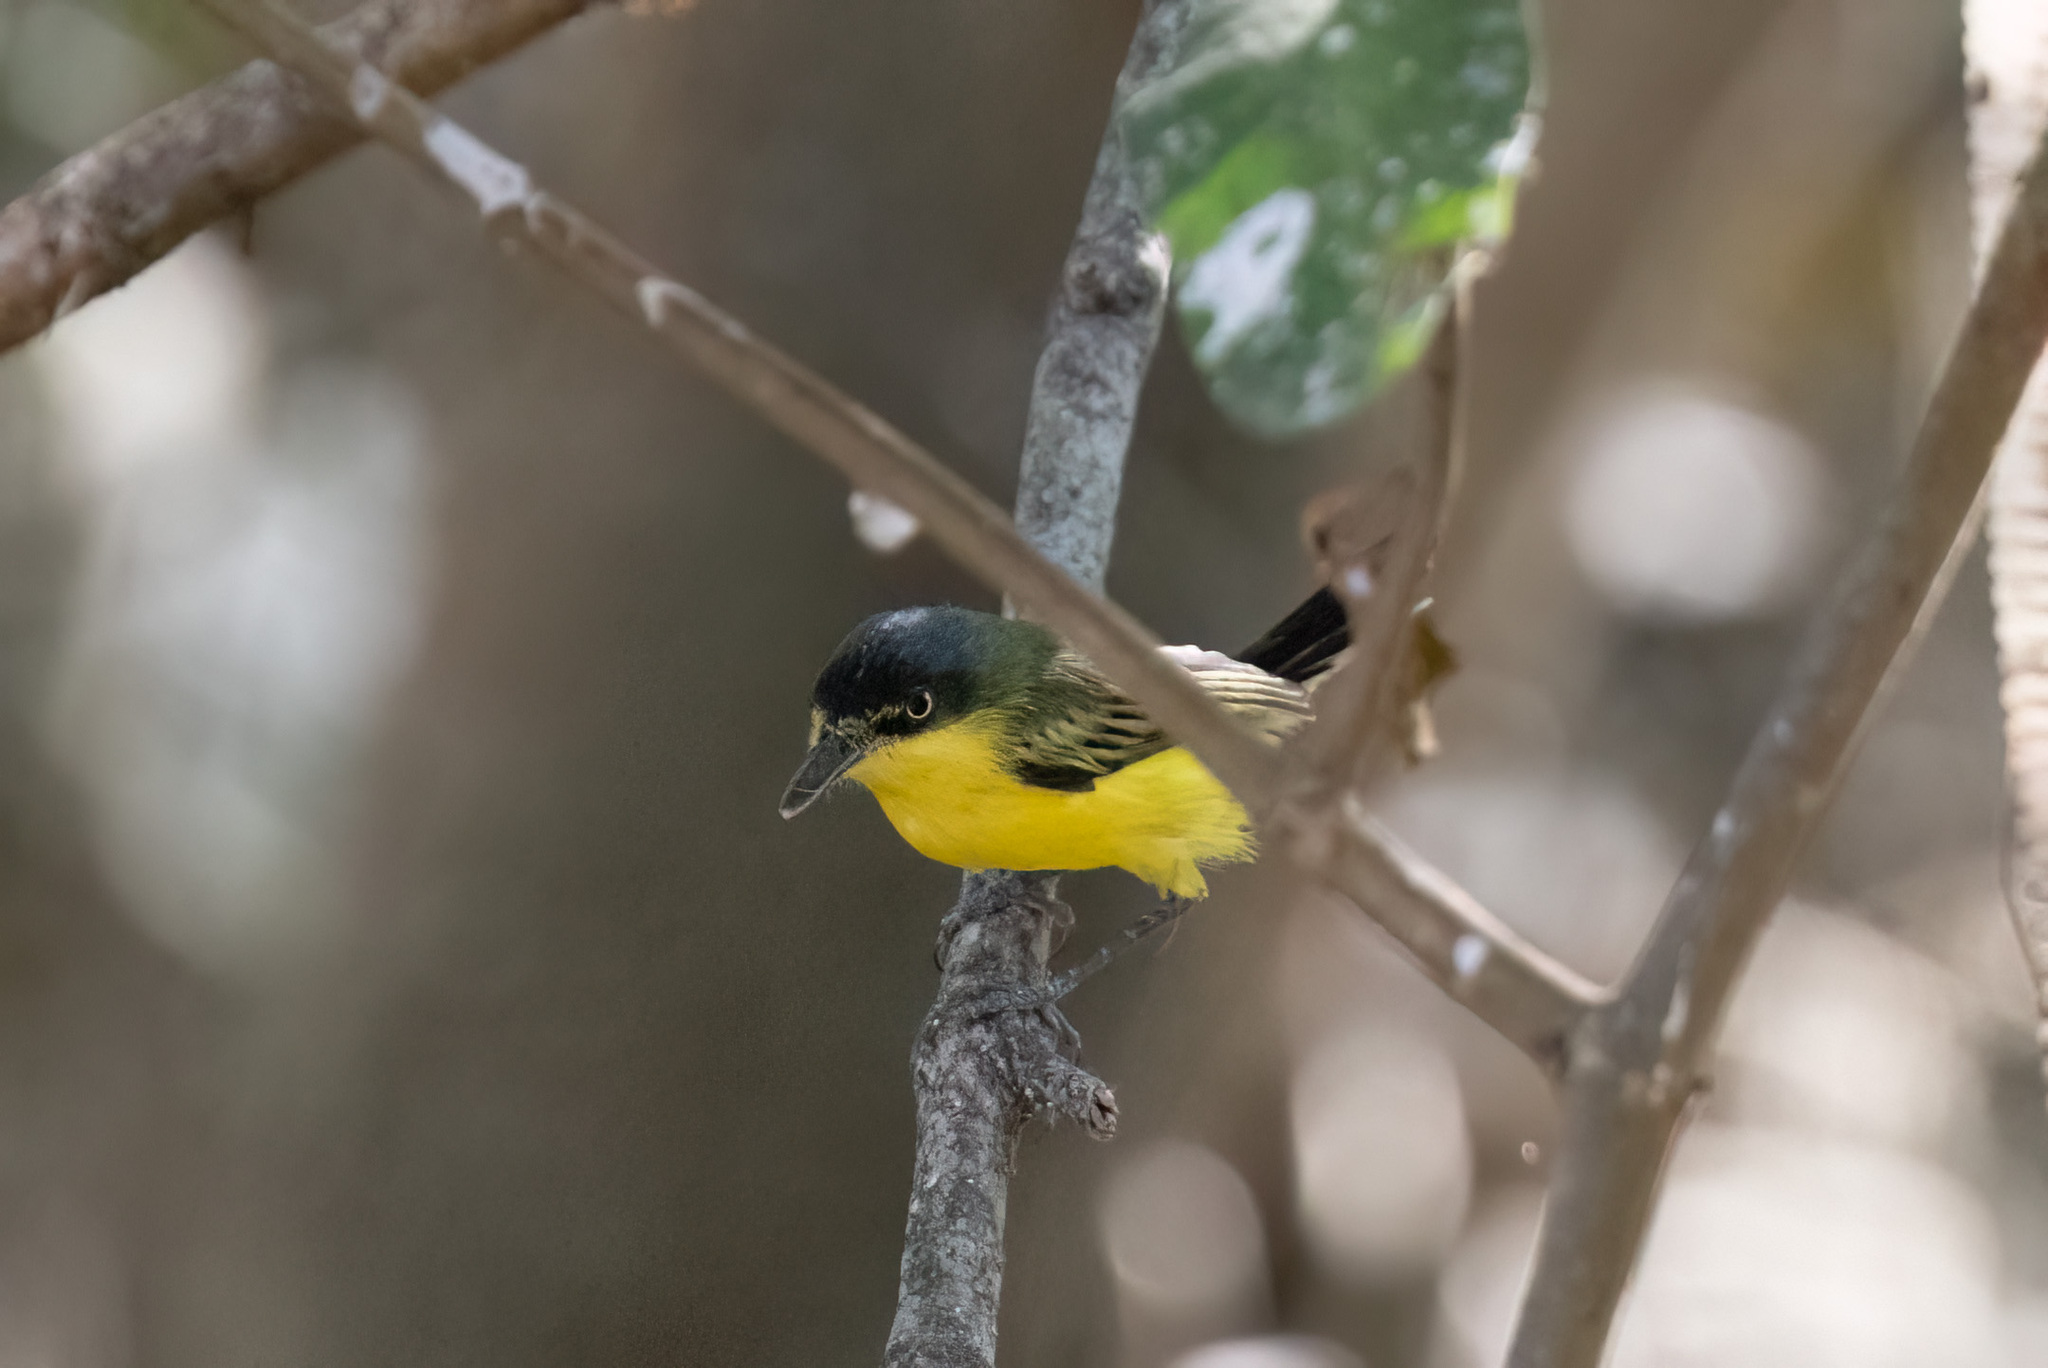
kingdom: Animalia
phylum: Chordata
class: Aves
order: Passeriformes
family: Tyrannidae
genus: Todirostrum
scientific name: Todirostrum cinereum
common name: Common tody-flycatcher
